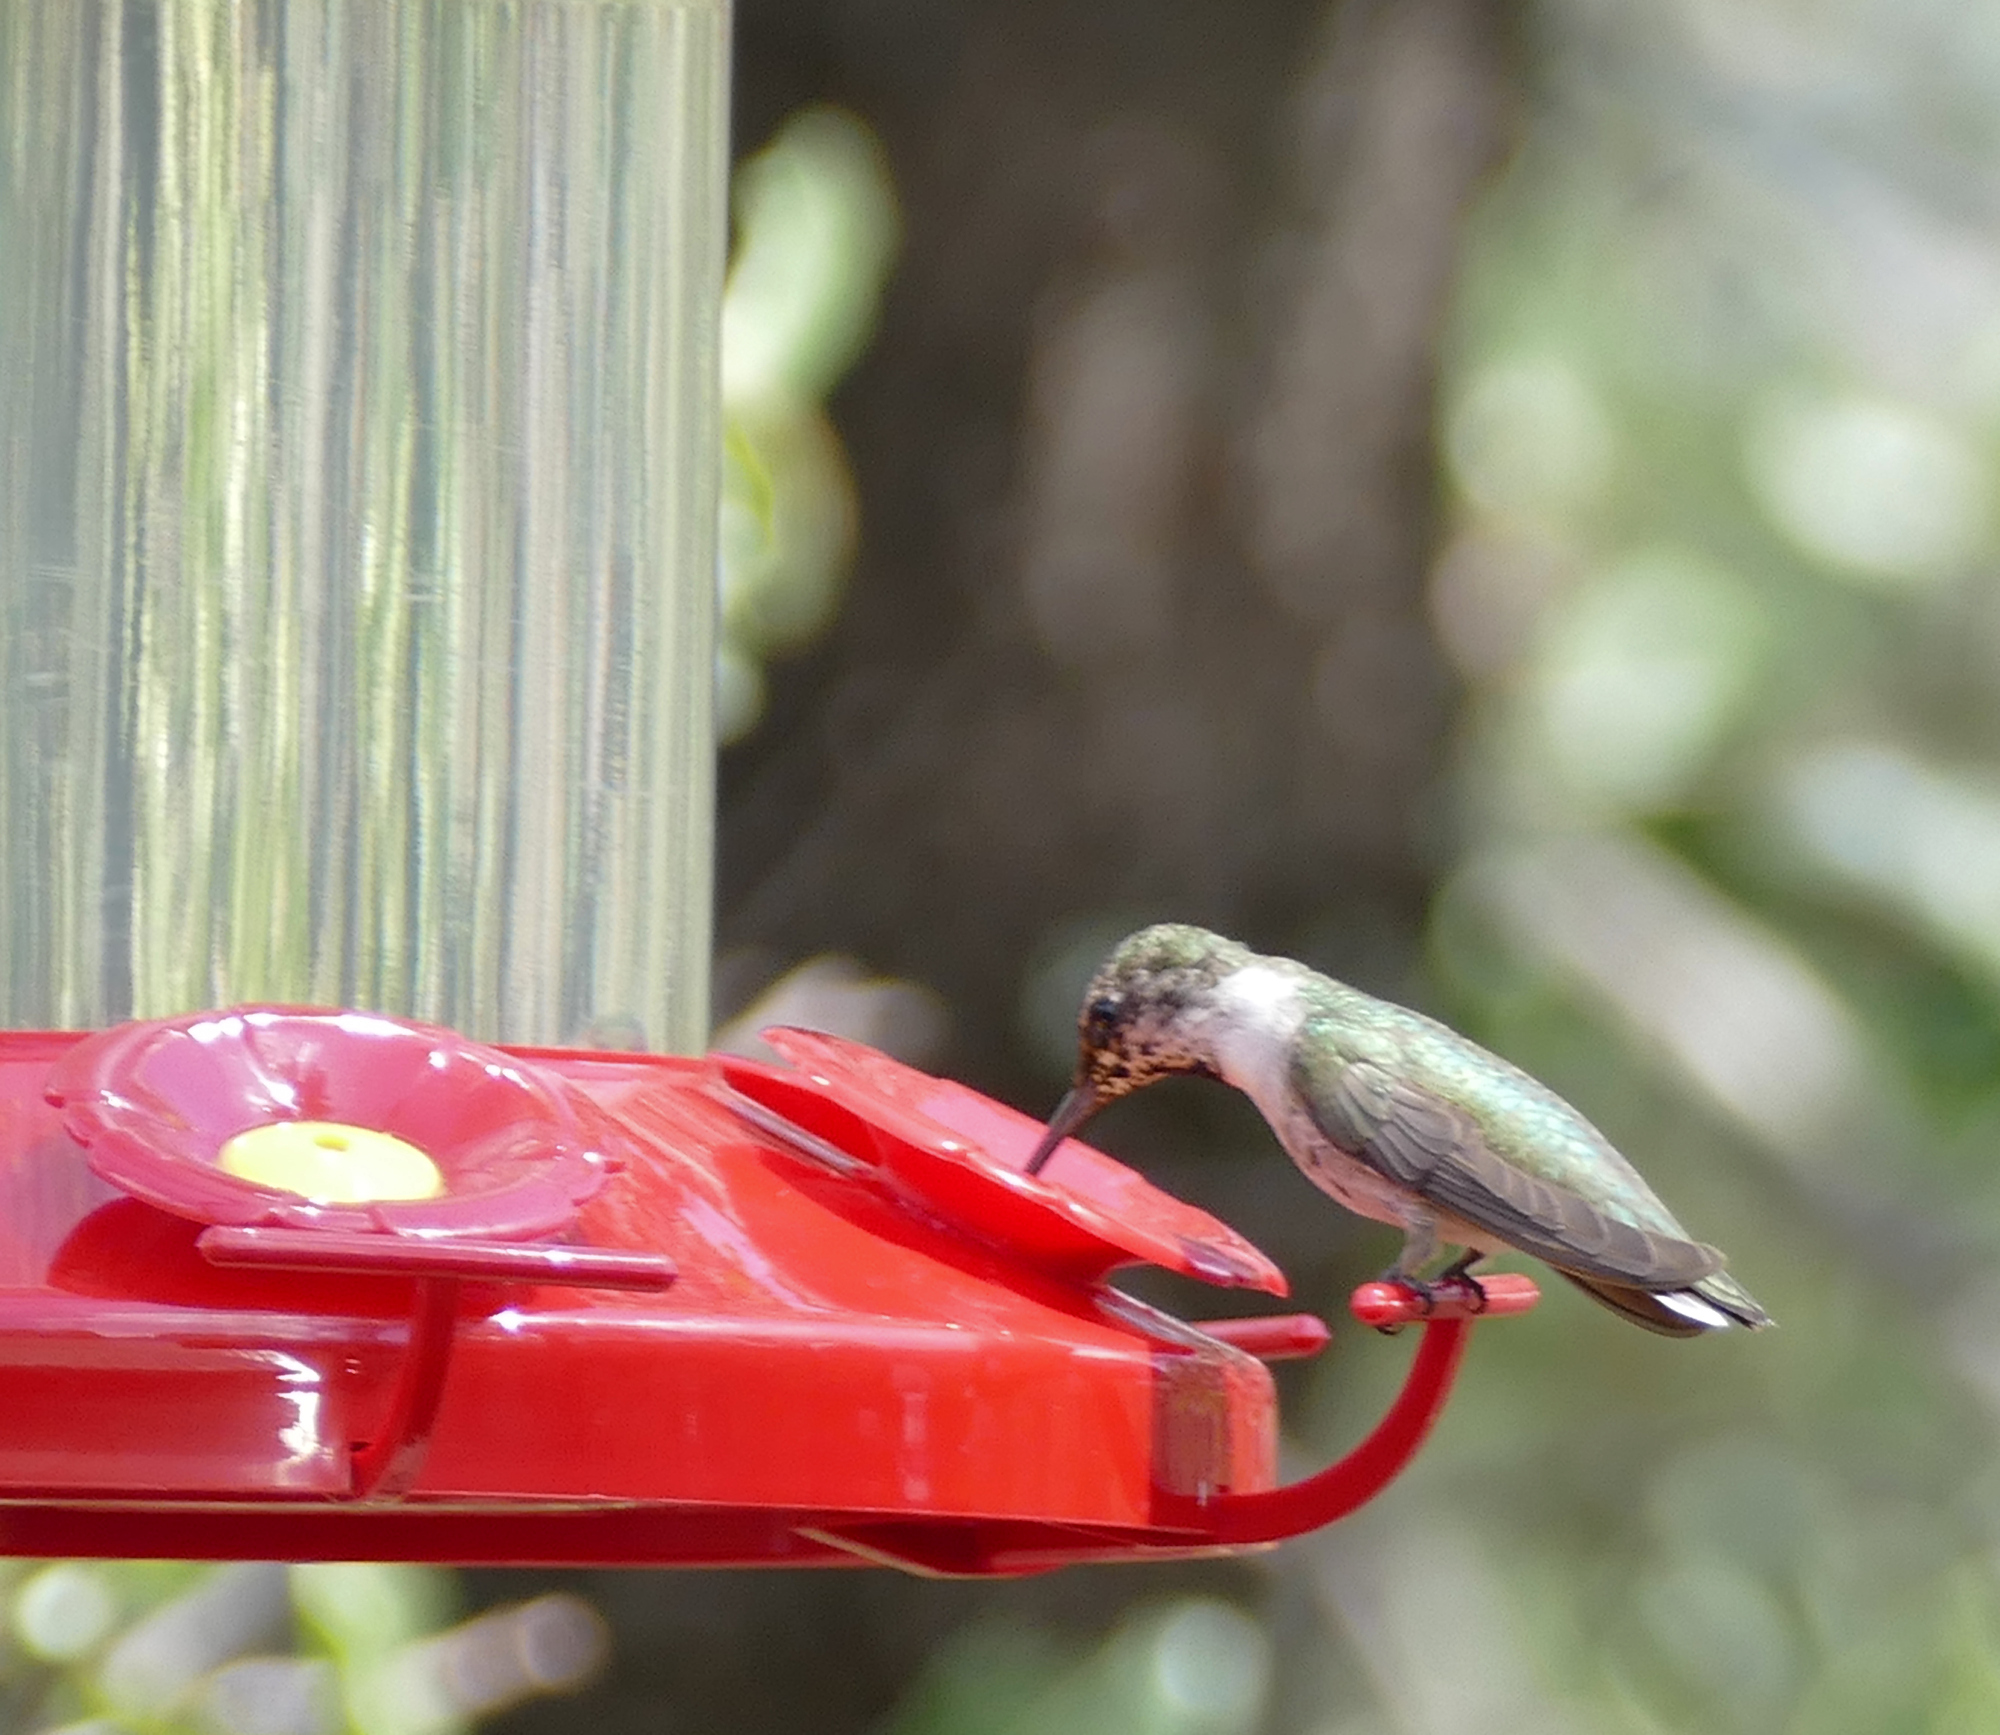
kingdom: Animalia
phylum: Chordata
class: Aves
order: Apodiformes
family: Trochilidae
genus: Archilochus
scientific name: Archilochus alexandri
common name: Black-chinned hummingbird
